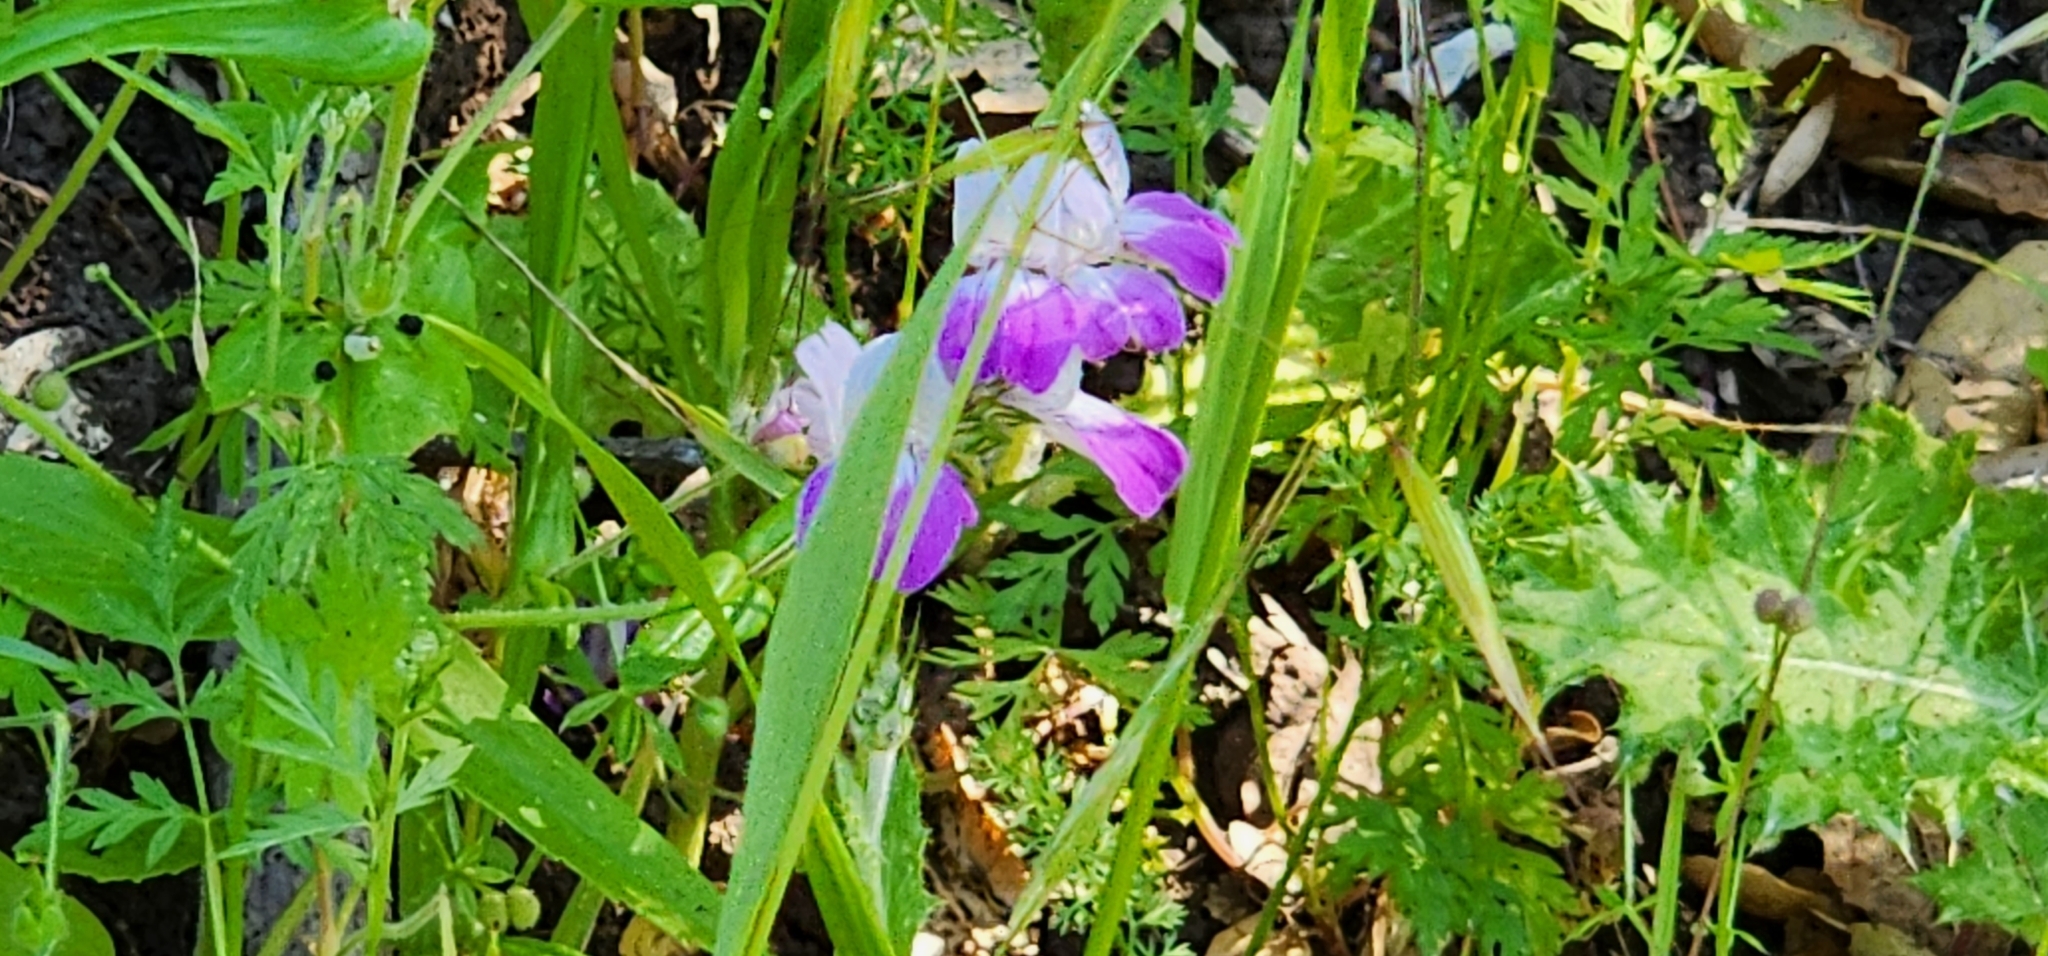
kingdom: Plantae
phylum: Tracheophyta
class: Magnoliopsida
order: Lamiales
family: Plantaginaceae
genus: Collinsia
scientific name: Collinsia heterophylla
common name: Chinese-houses
